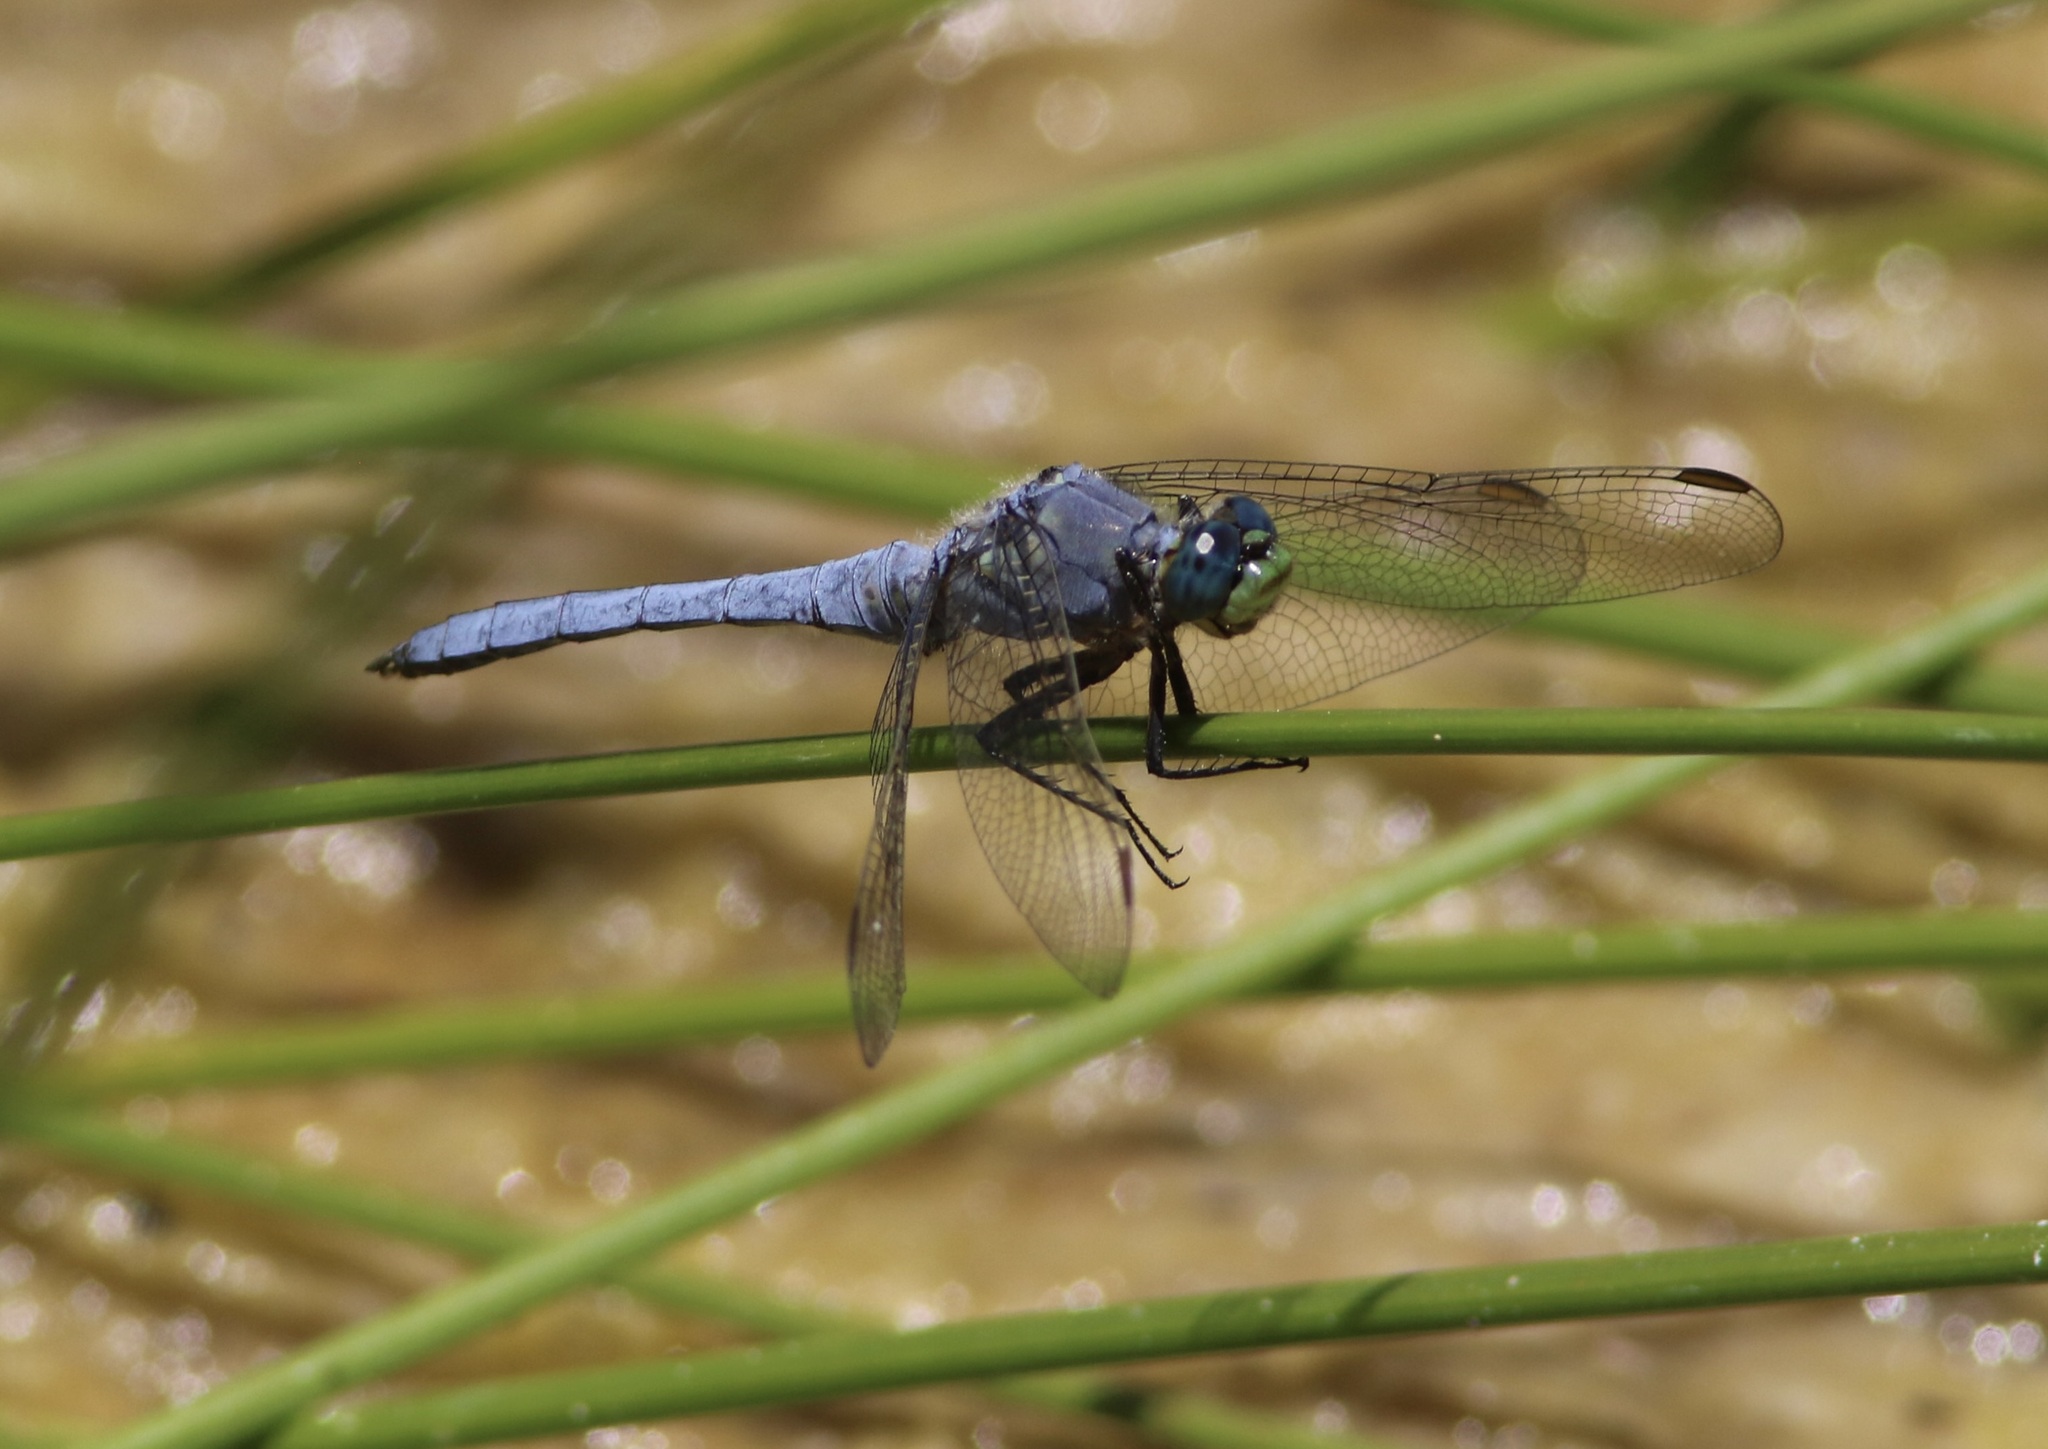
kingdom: Animalia
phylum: Arthropoda
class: Insecta
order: Odonata
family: Libellulidae
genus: Erythemis
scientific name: Erythemis collocata
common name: Western pondhawk
